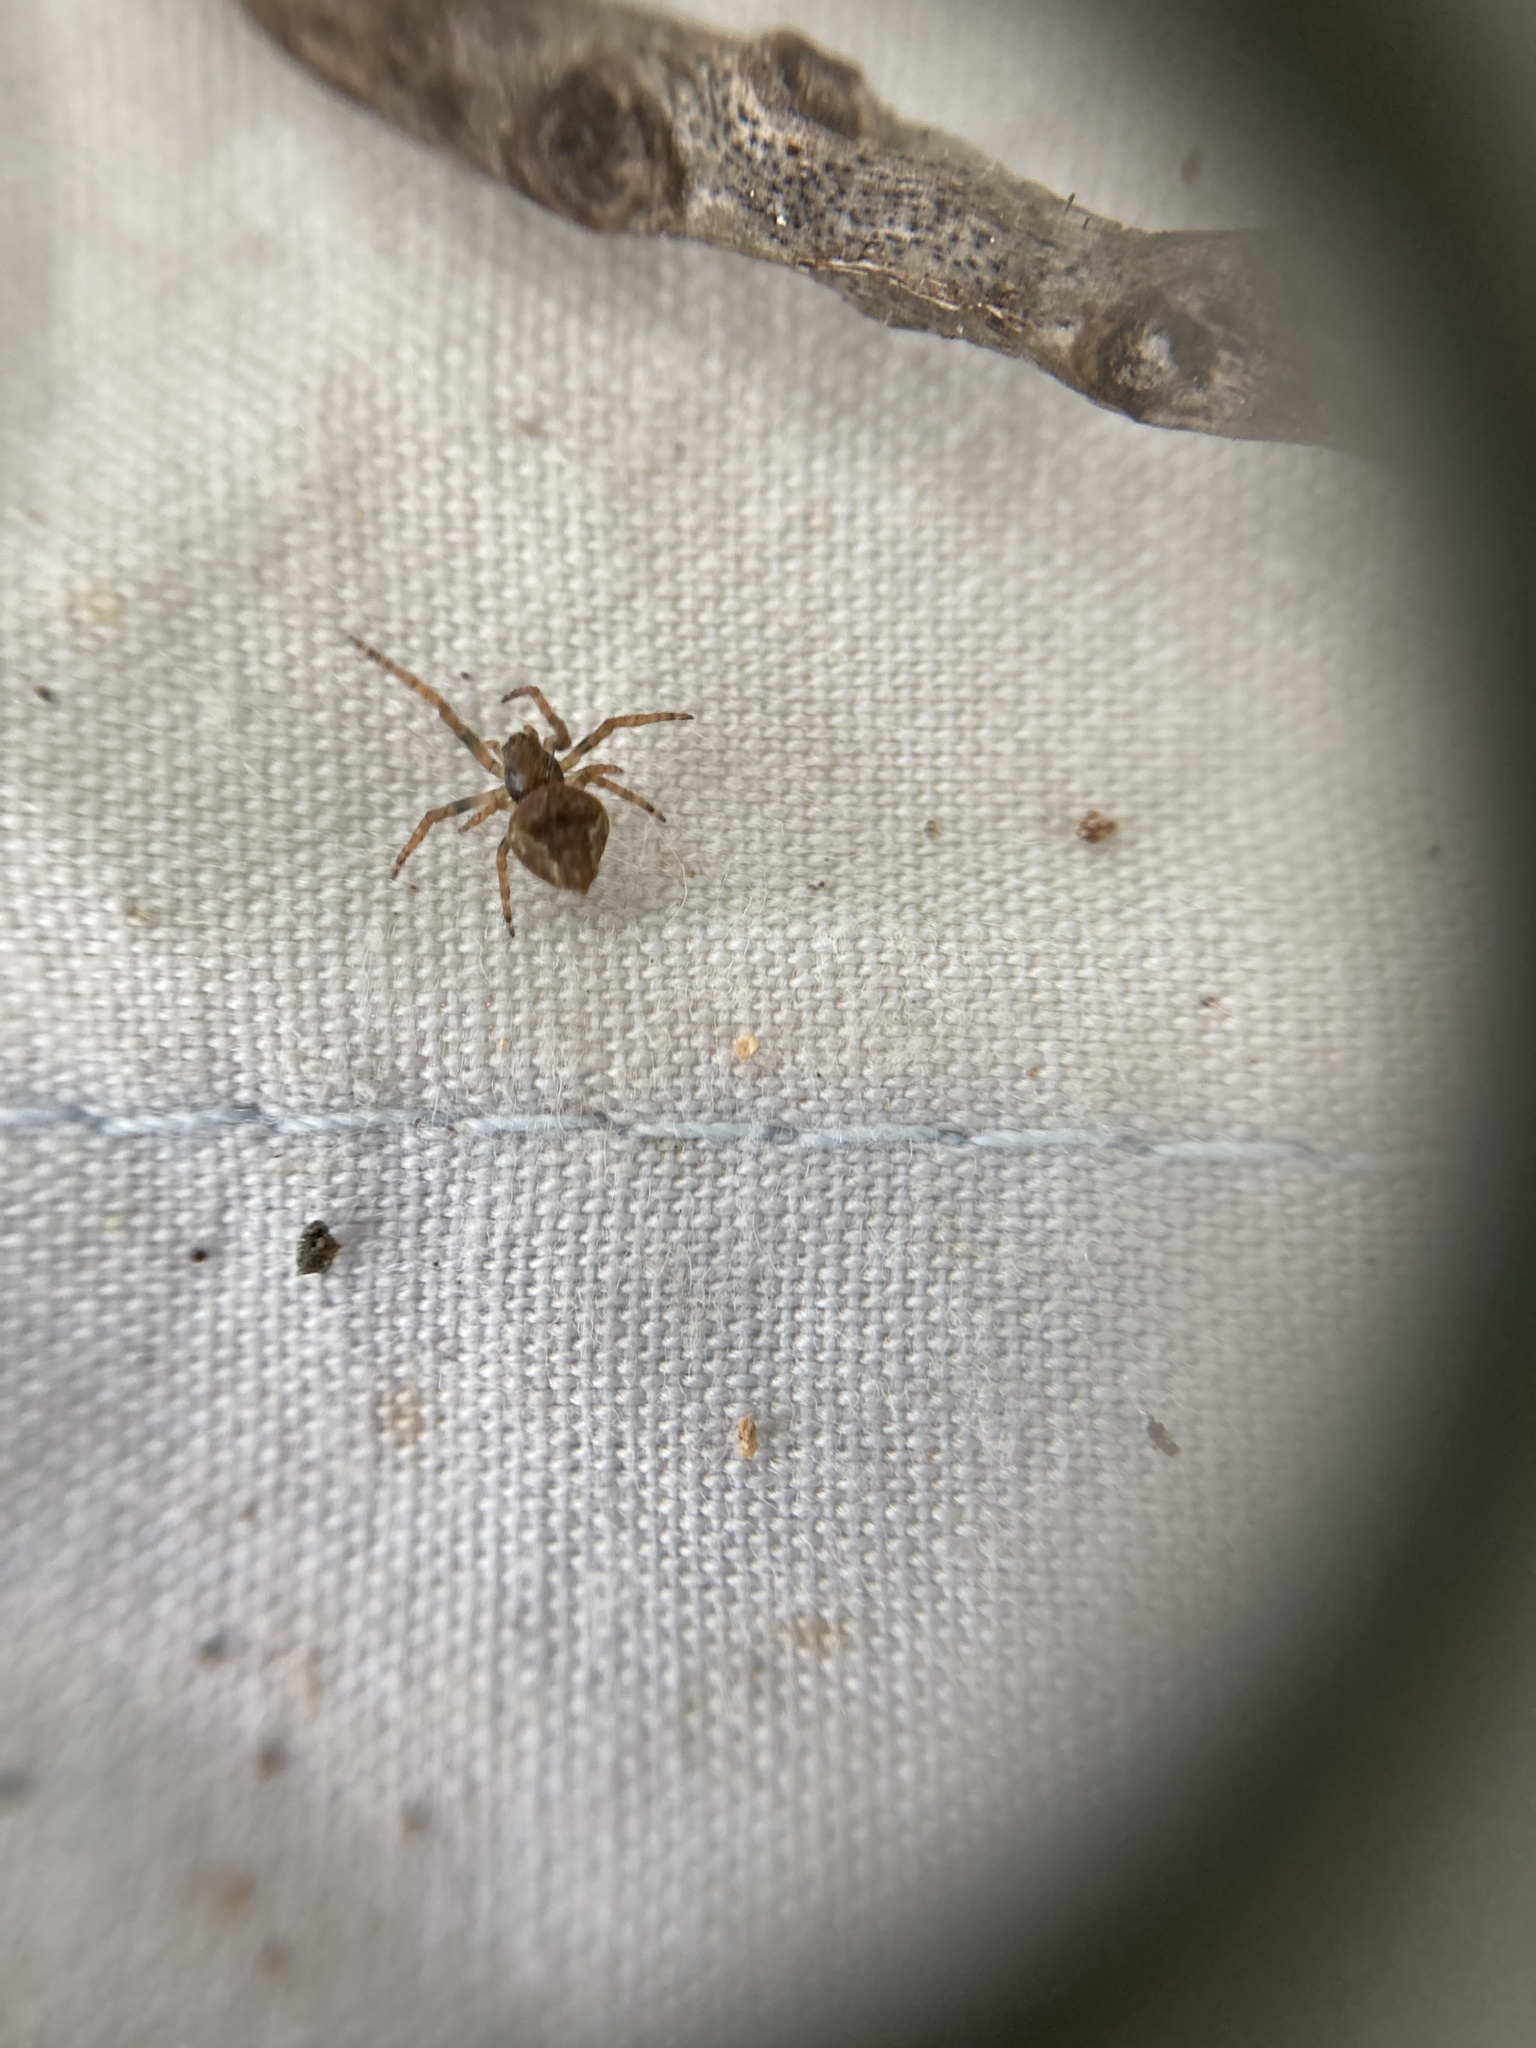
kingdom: Animalia
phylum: Arthropoda
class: Arachnida
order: Araneae
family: Araneidae
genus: Eriophora
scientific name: Eriophora pustulosa
